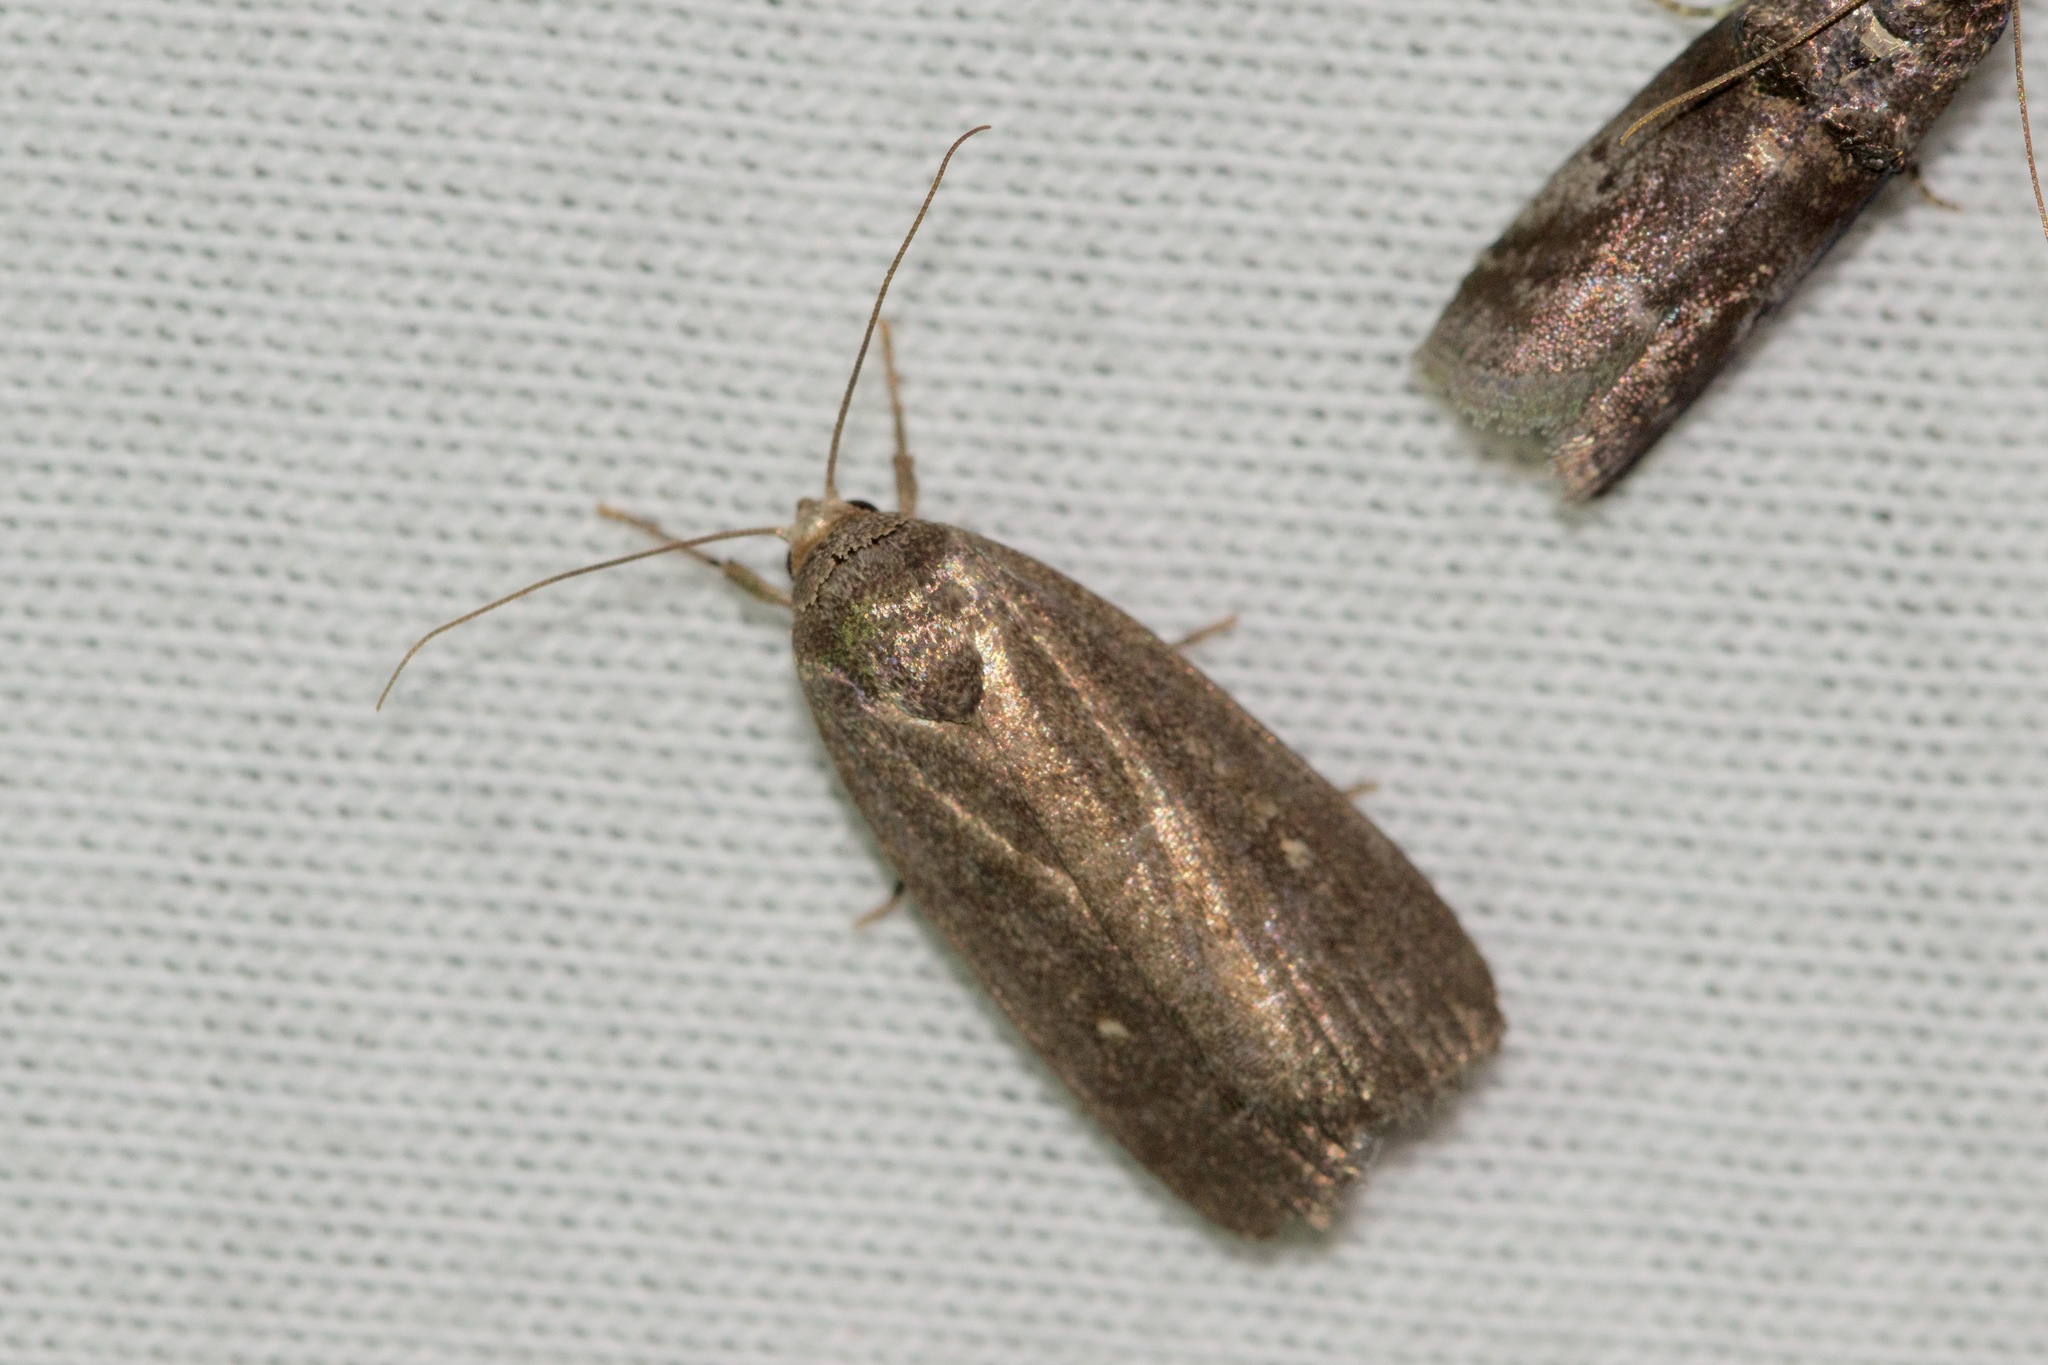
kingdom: Animalia
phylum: Arthropoda
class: Insecta
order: Lepidoptera
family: Noctuidae
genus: Proxenus
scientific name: Proxenus miranda
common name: Miranda moth
